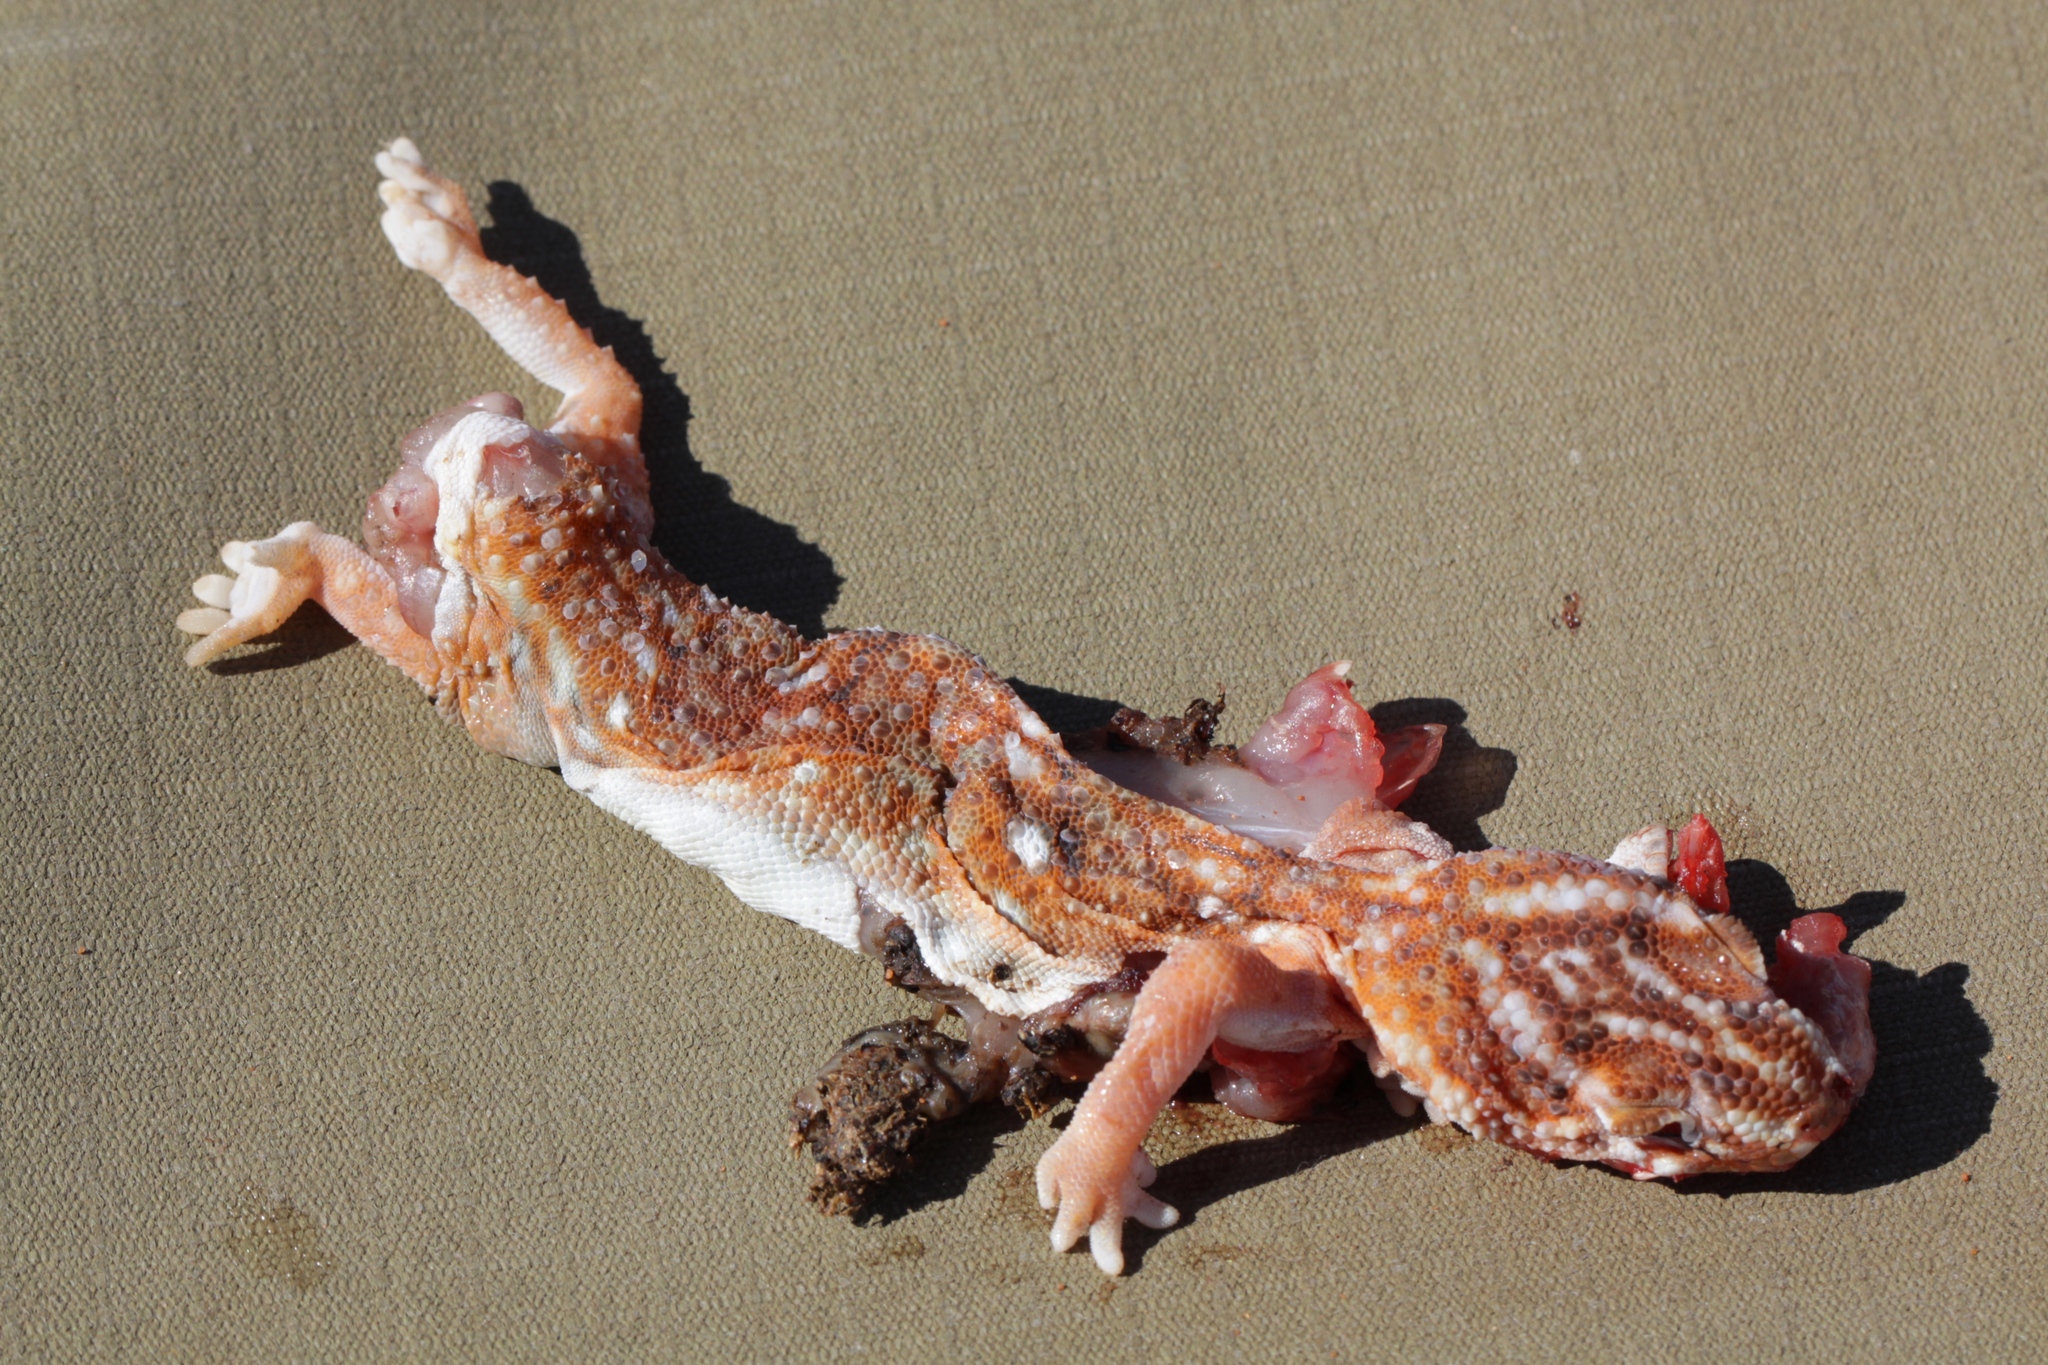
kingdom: Animalia
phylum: Chordata
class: Squamata
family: Gekkonidae
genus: Chondrodactylus
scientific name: Chondrodactylus angulifer
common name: Common giant ground gecko
